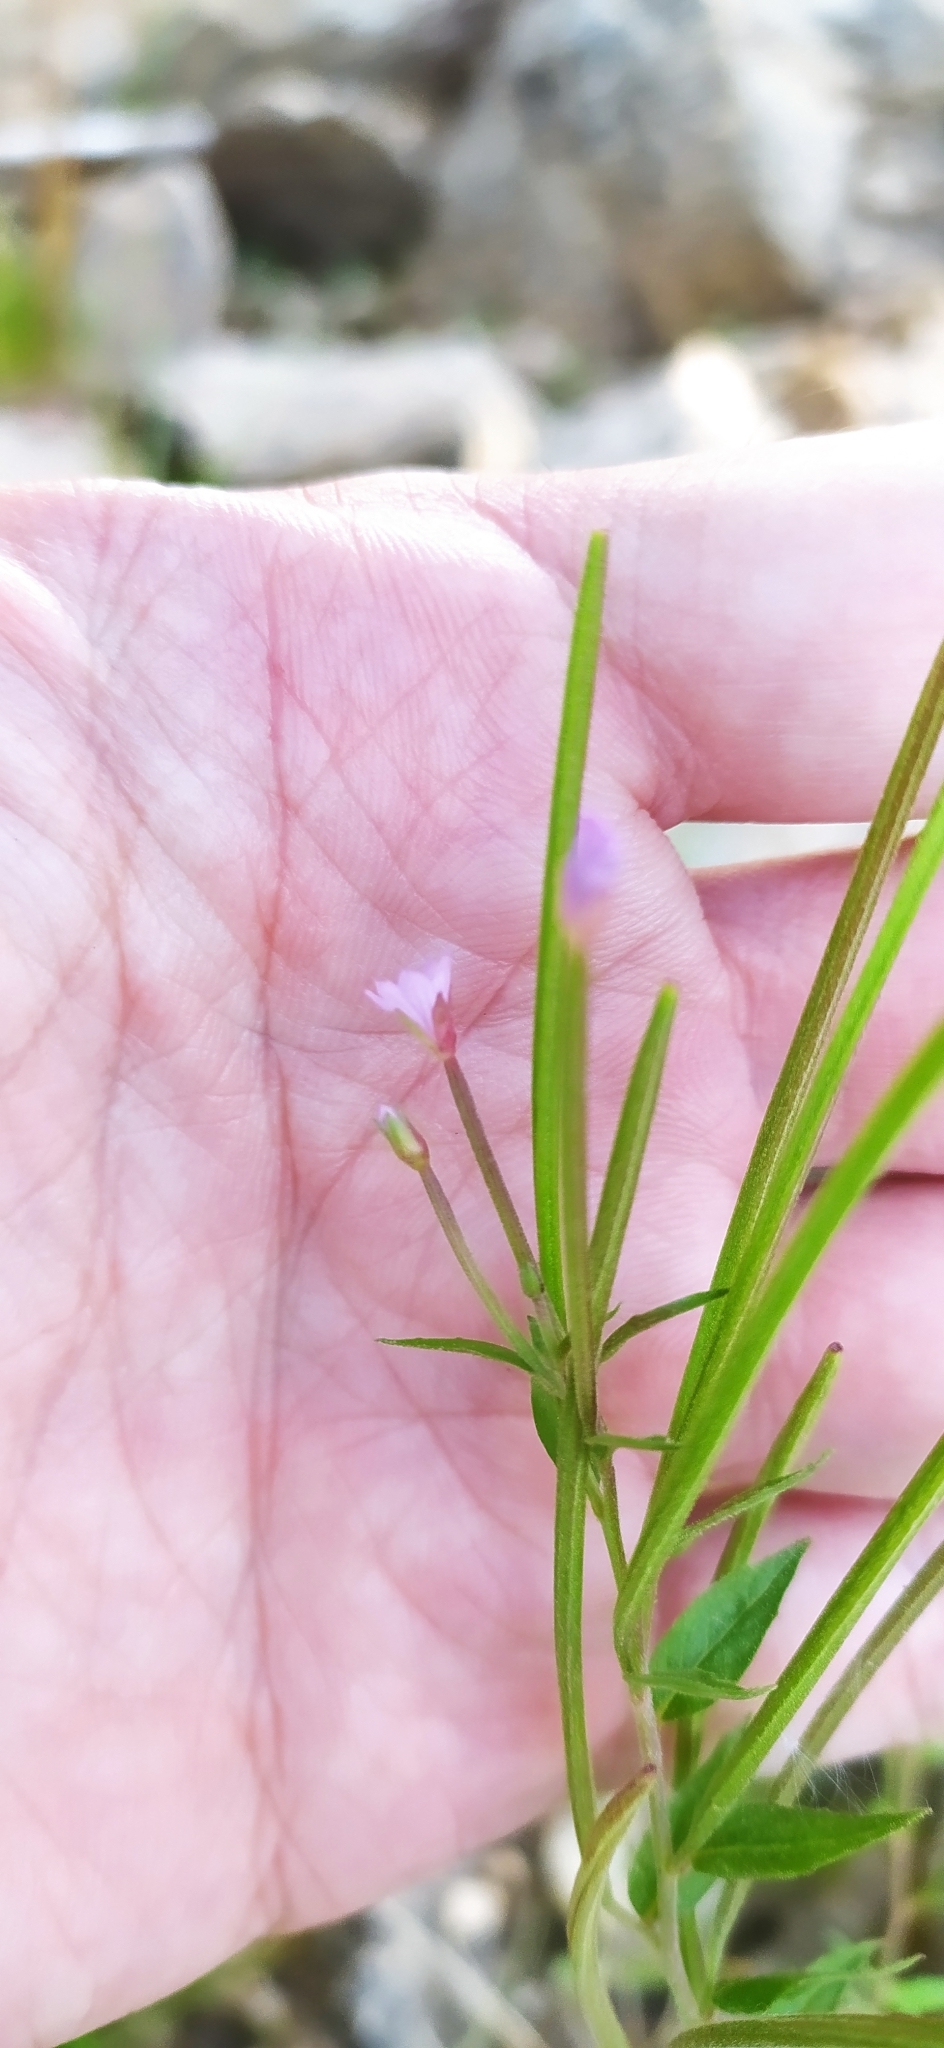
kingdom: Plantae
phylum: Tracheophyta
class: Magnoliopsida
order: Myrtales
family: Onagraceae
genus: Epilobium
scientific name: Epilobium hornemannii
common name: Hornemann's willowherb
